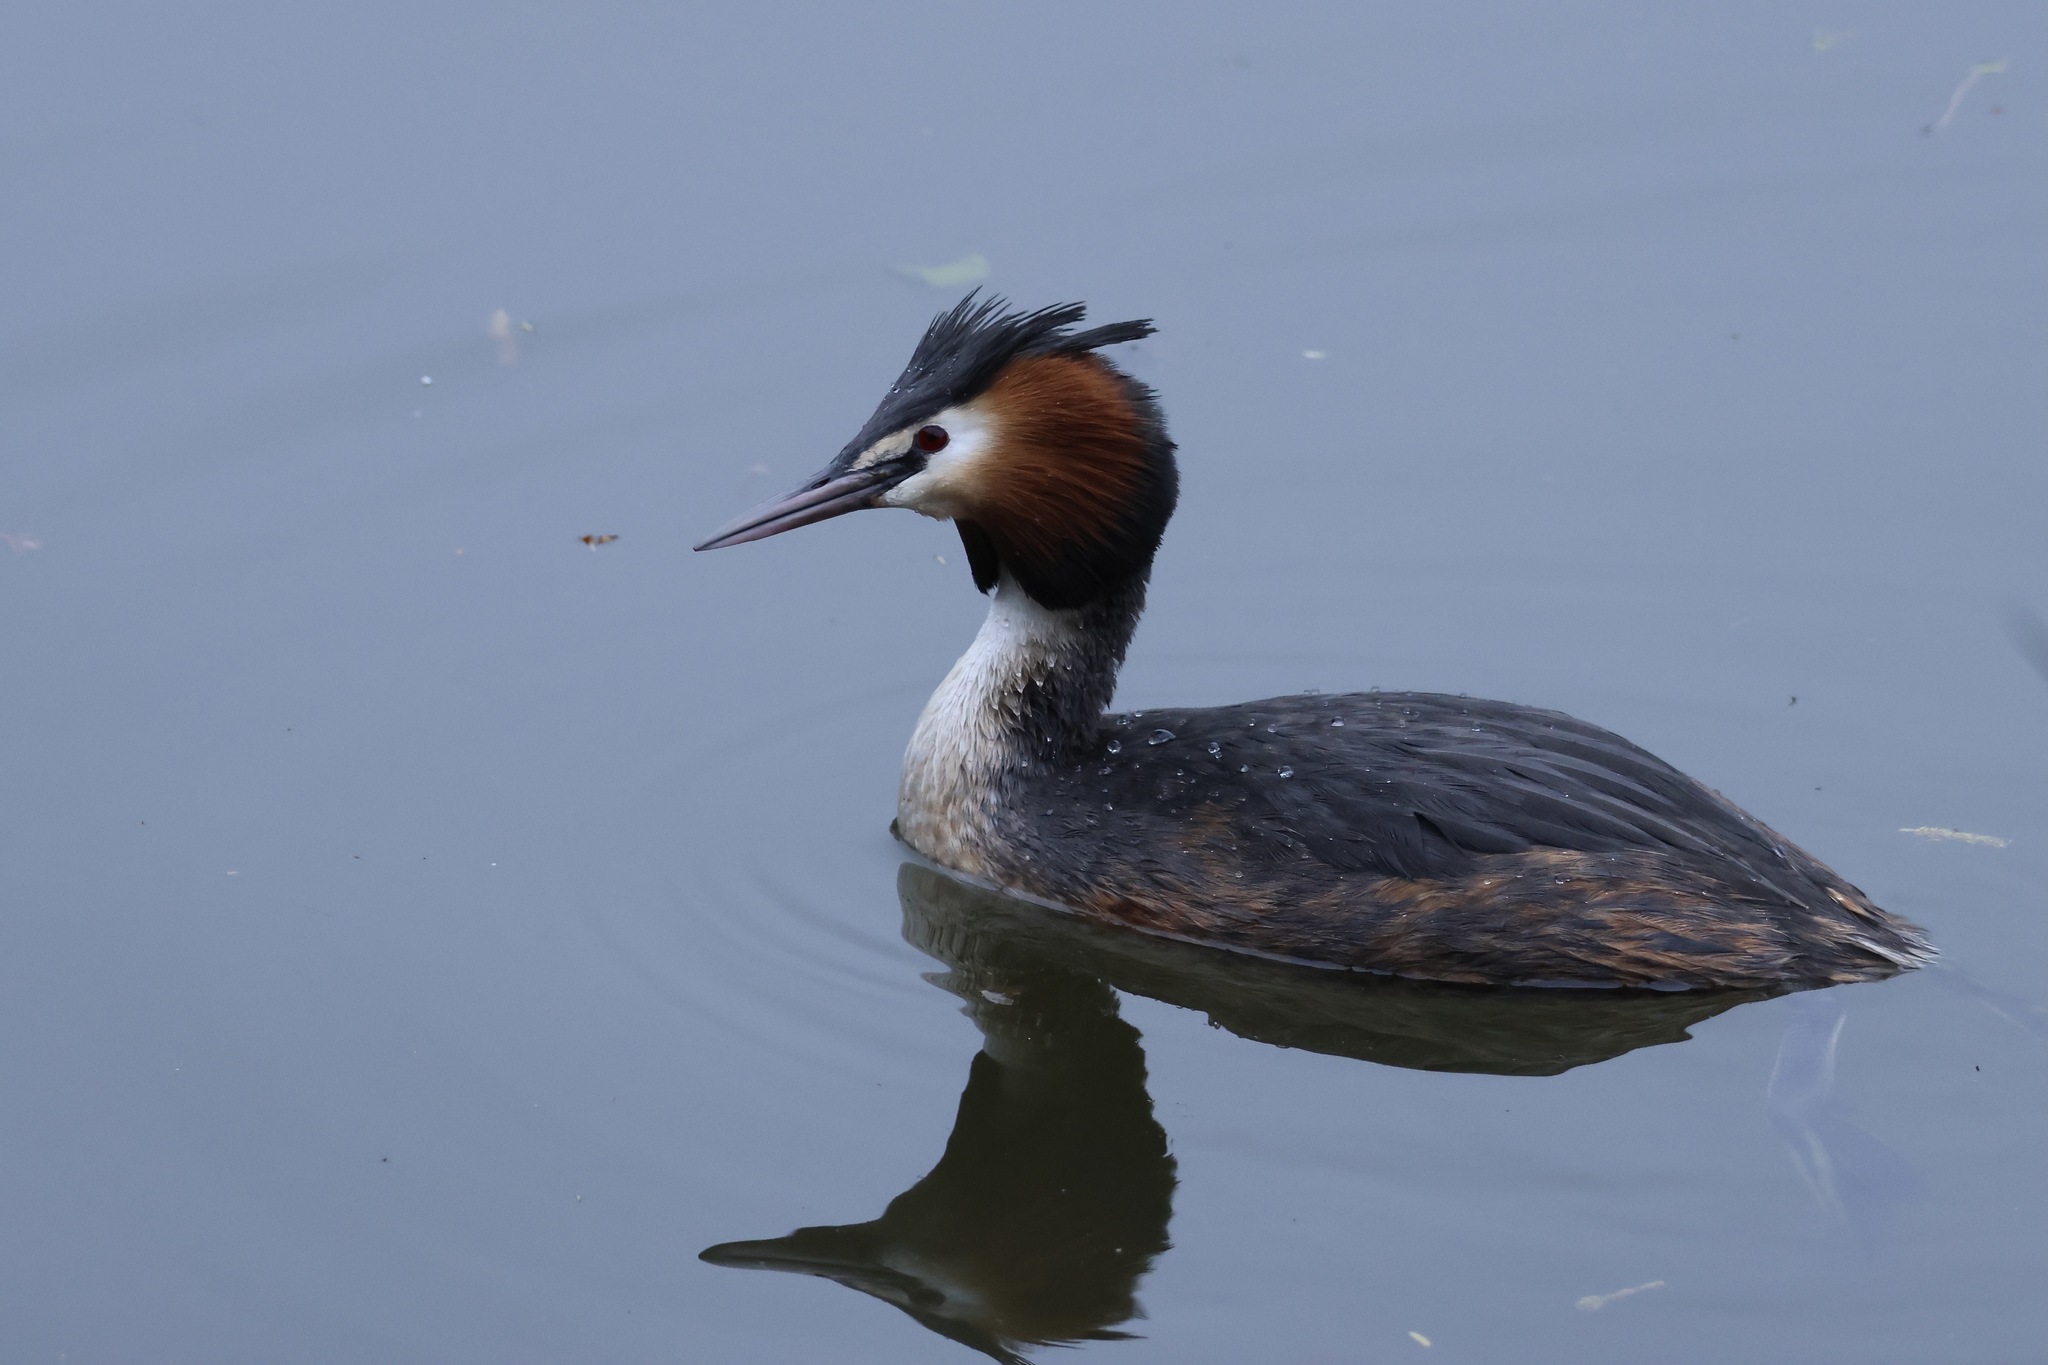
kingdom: Animalia
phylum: Chordata
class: Aves
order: Podicipediformes
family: Podicipedidae
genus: Podiceps
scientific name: Podiceps cristatus
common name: Great crested grebe
